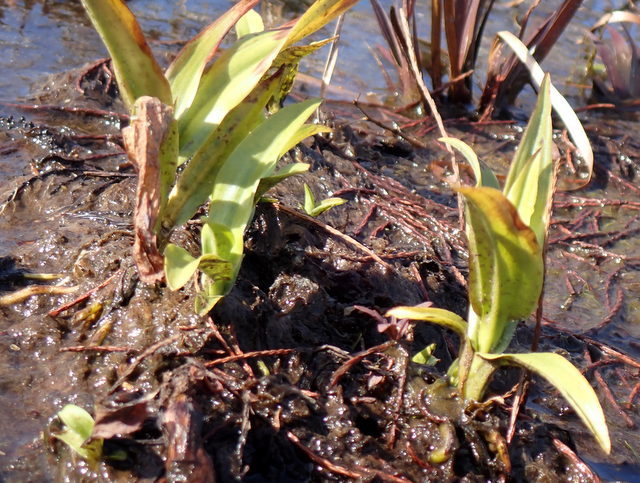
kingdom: Plantae
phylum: Tracheophyta
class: Liliopsida
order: Asparagales
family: Orchidaceae
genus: Habenaria
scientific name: Habenaria repens
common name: Water orchid
